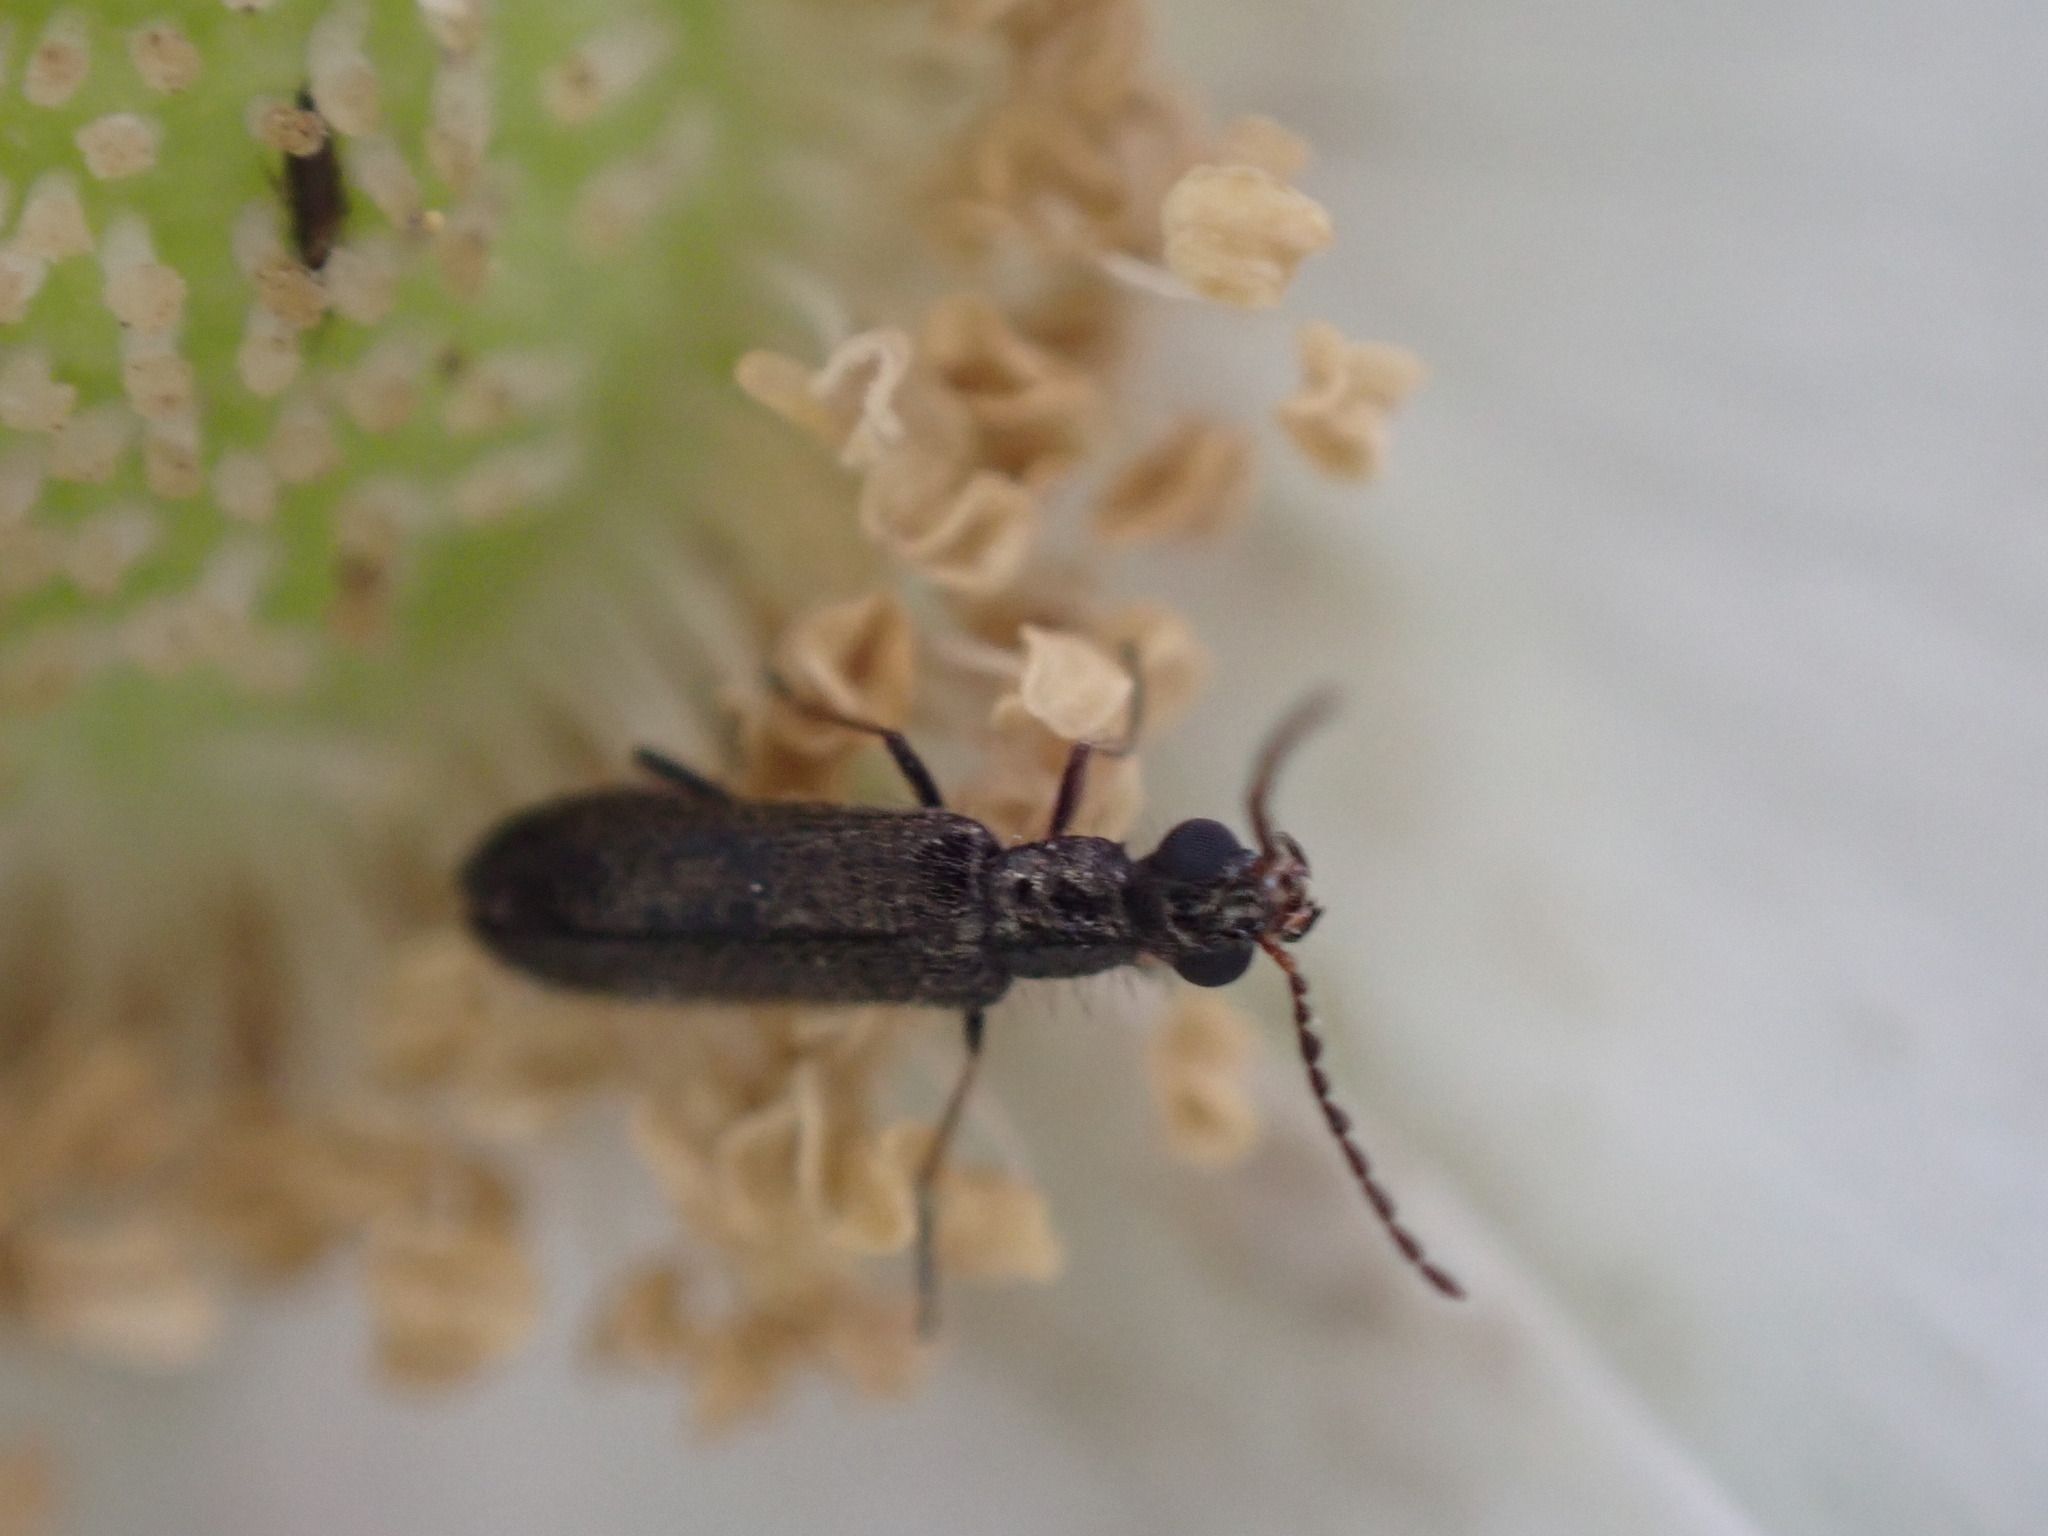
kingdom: Animalia
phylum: Arthropoda
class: Insecta
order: Coleoptera
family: Melyridae
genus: Dasytes
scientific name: Dasytes plumbeus
